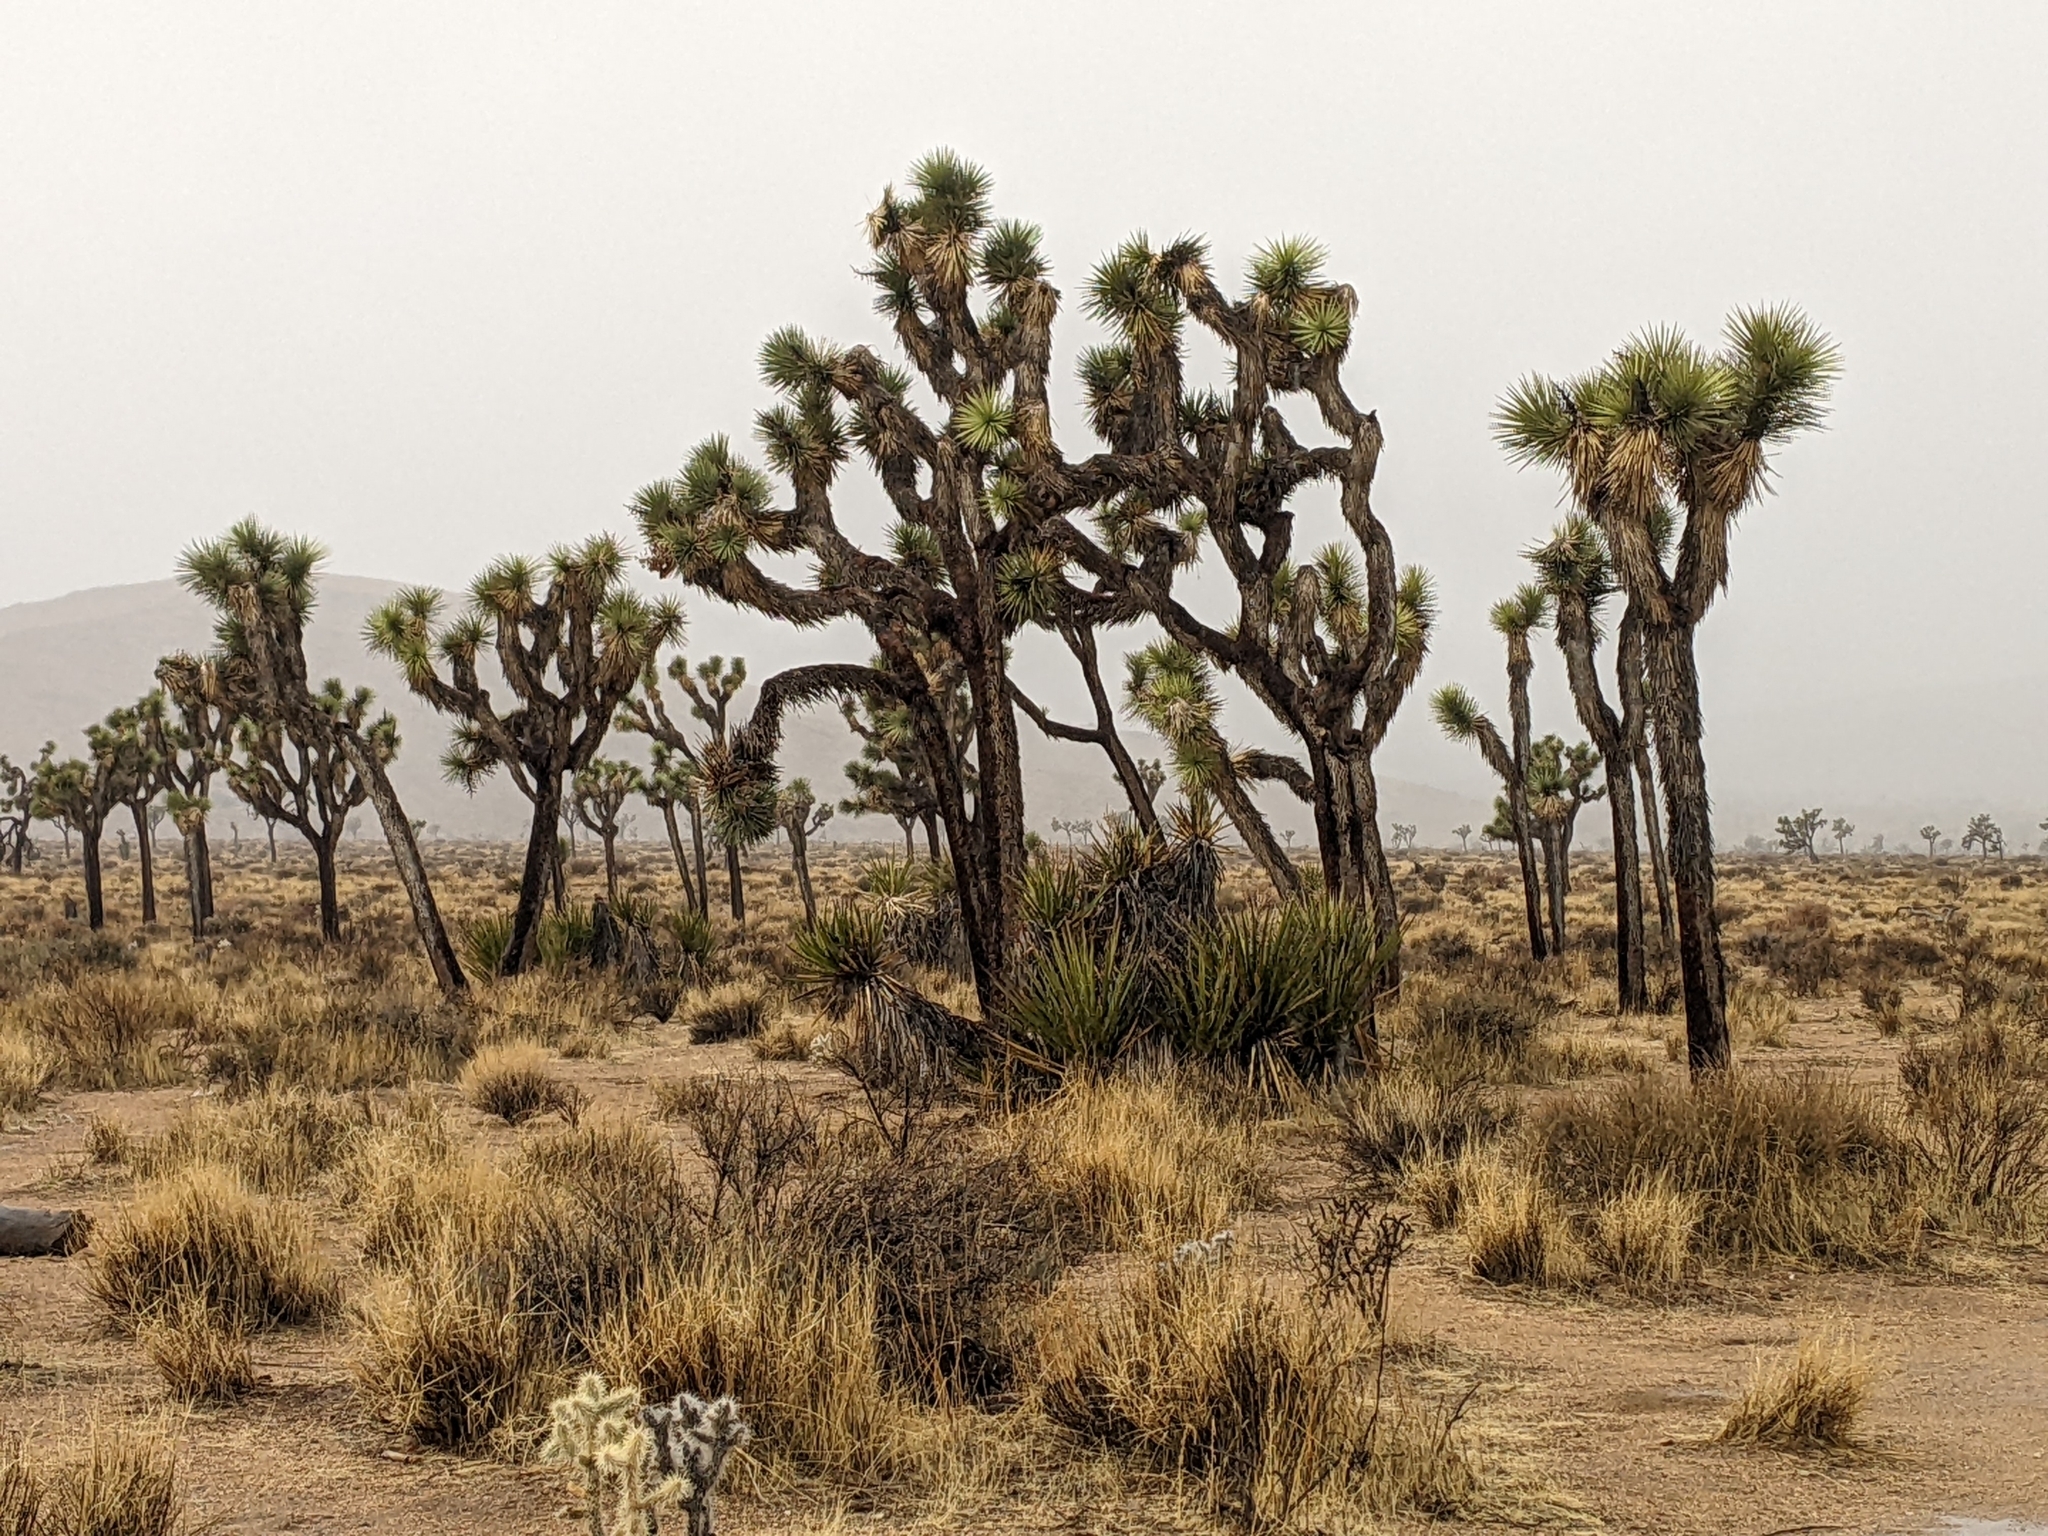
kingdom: Plantae
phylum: Tracheophyta
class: Liliopsida
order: Asparagales
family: Asparagaceae
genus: Yucca
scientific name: Yucca brevifolia
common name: Joshua tree
